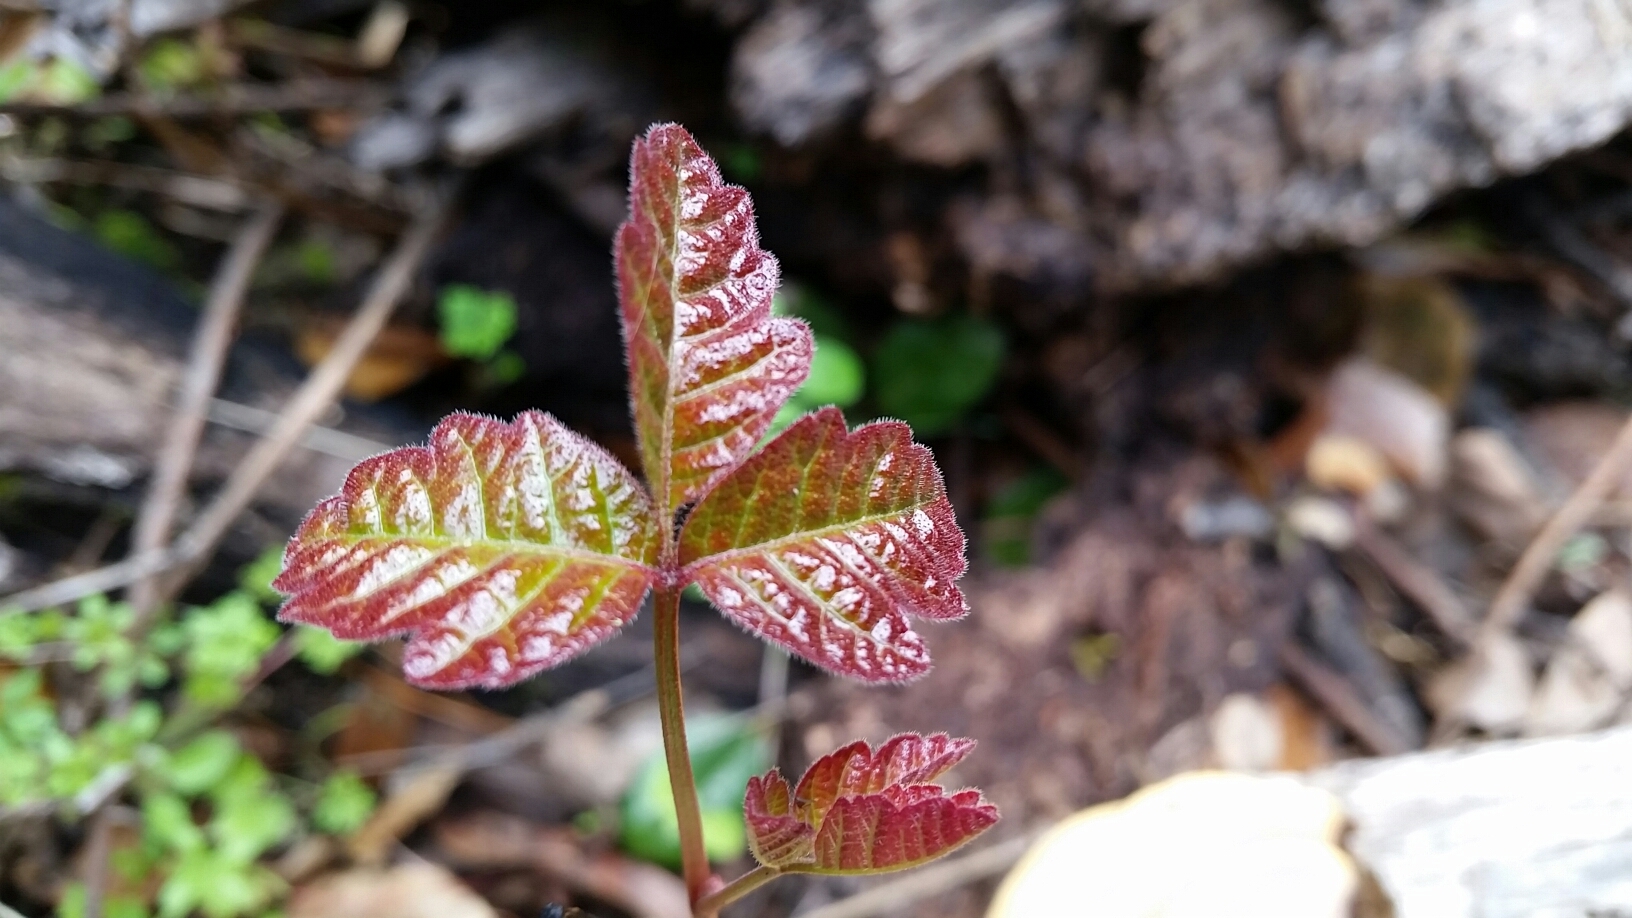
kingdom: Plantae
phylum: Tracheophyta
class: Magnoliopsida
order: Sapindales
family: Anacardiaceae
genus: Toxicodendron
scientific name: Toxicodendron diversilobum
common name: Pacific poison-oak
